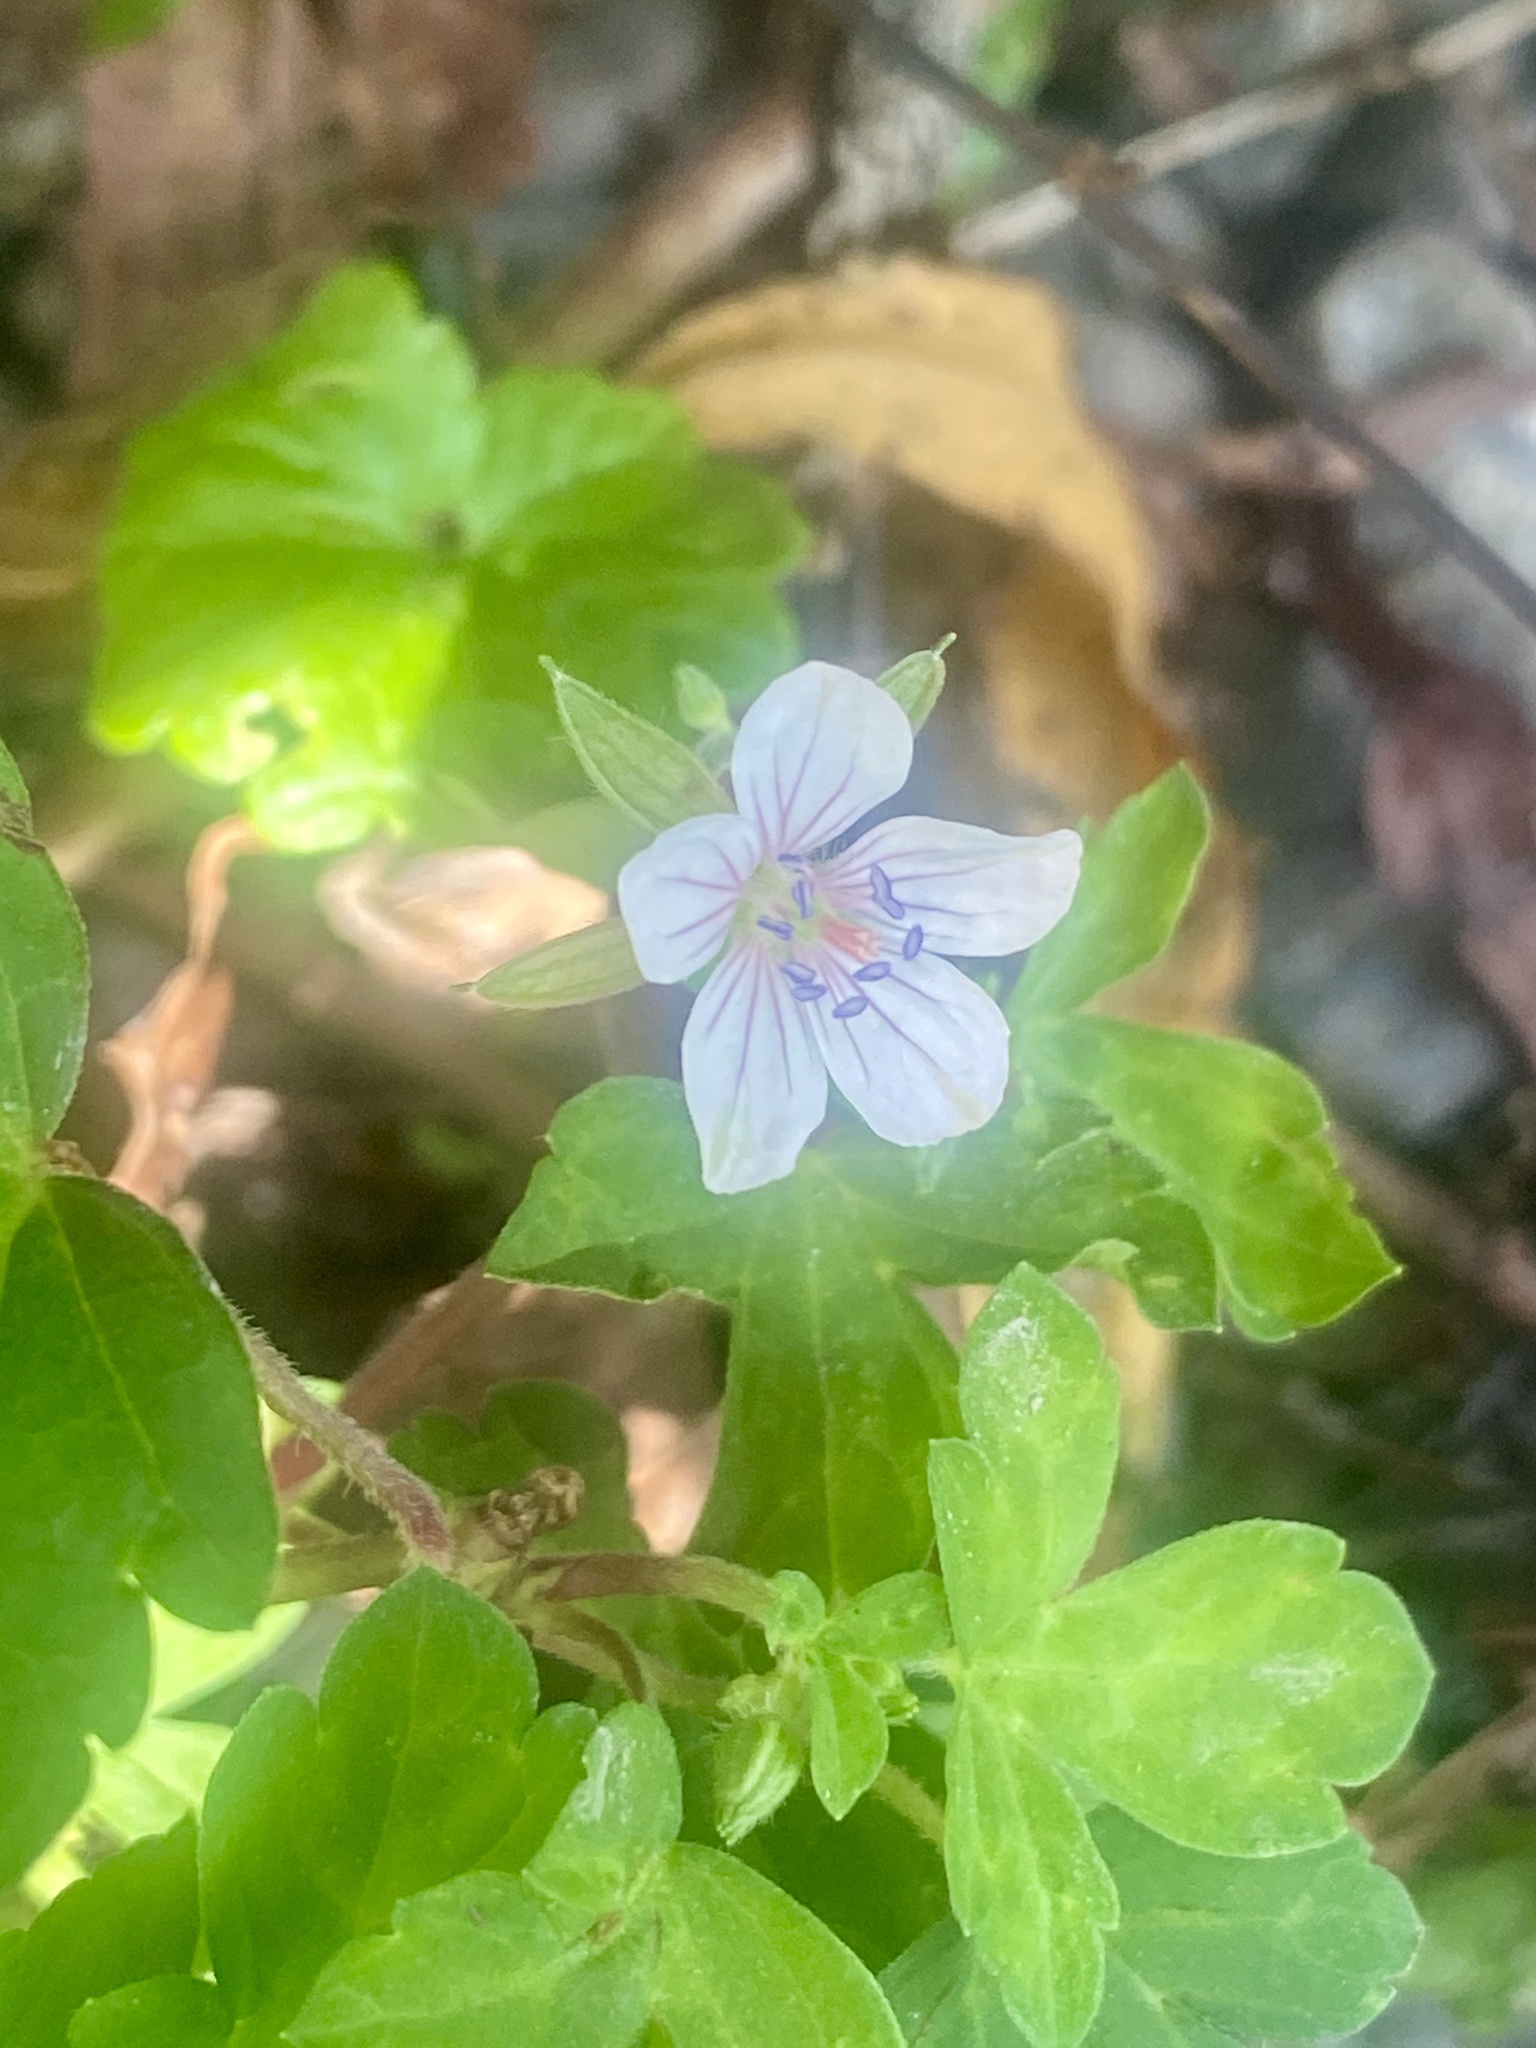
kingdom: Plantae
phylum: Tracheophyta
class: Magnoliopsida
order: Geraniales
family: Geraniaceae
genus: Geranium
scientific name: Geranium thunbergii
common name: Dewdrop crane's-bill
